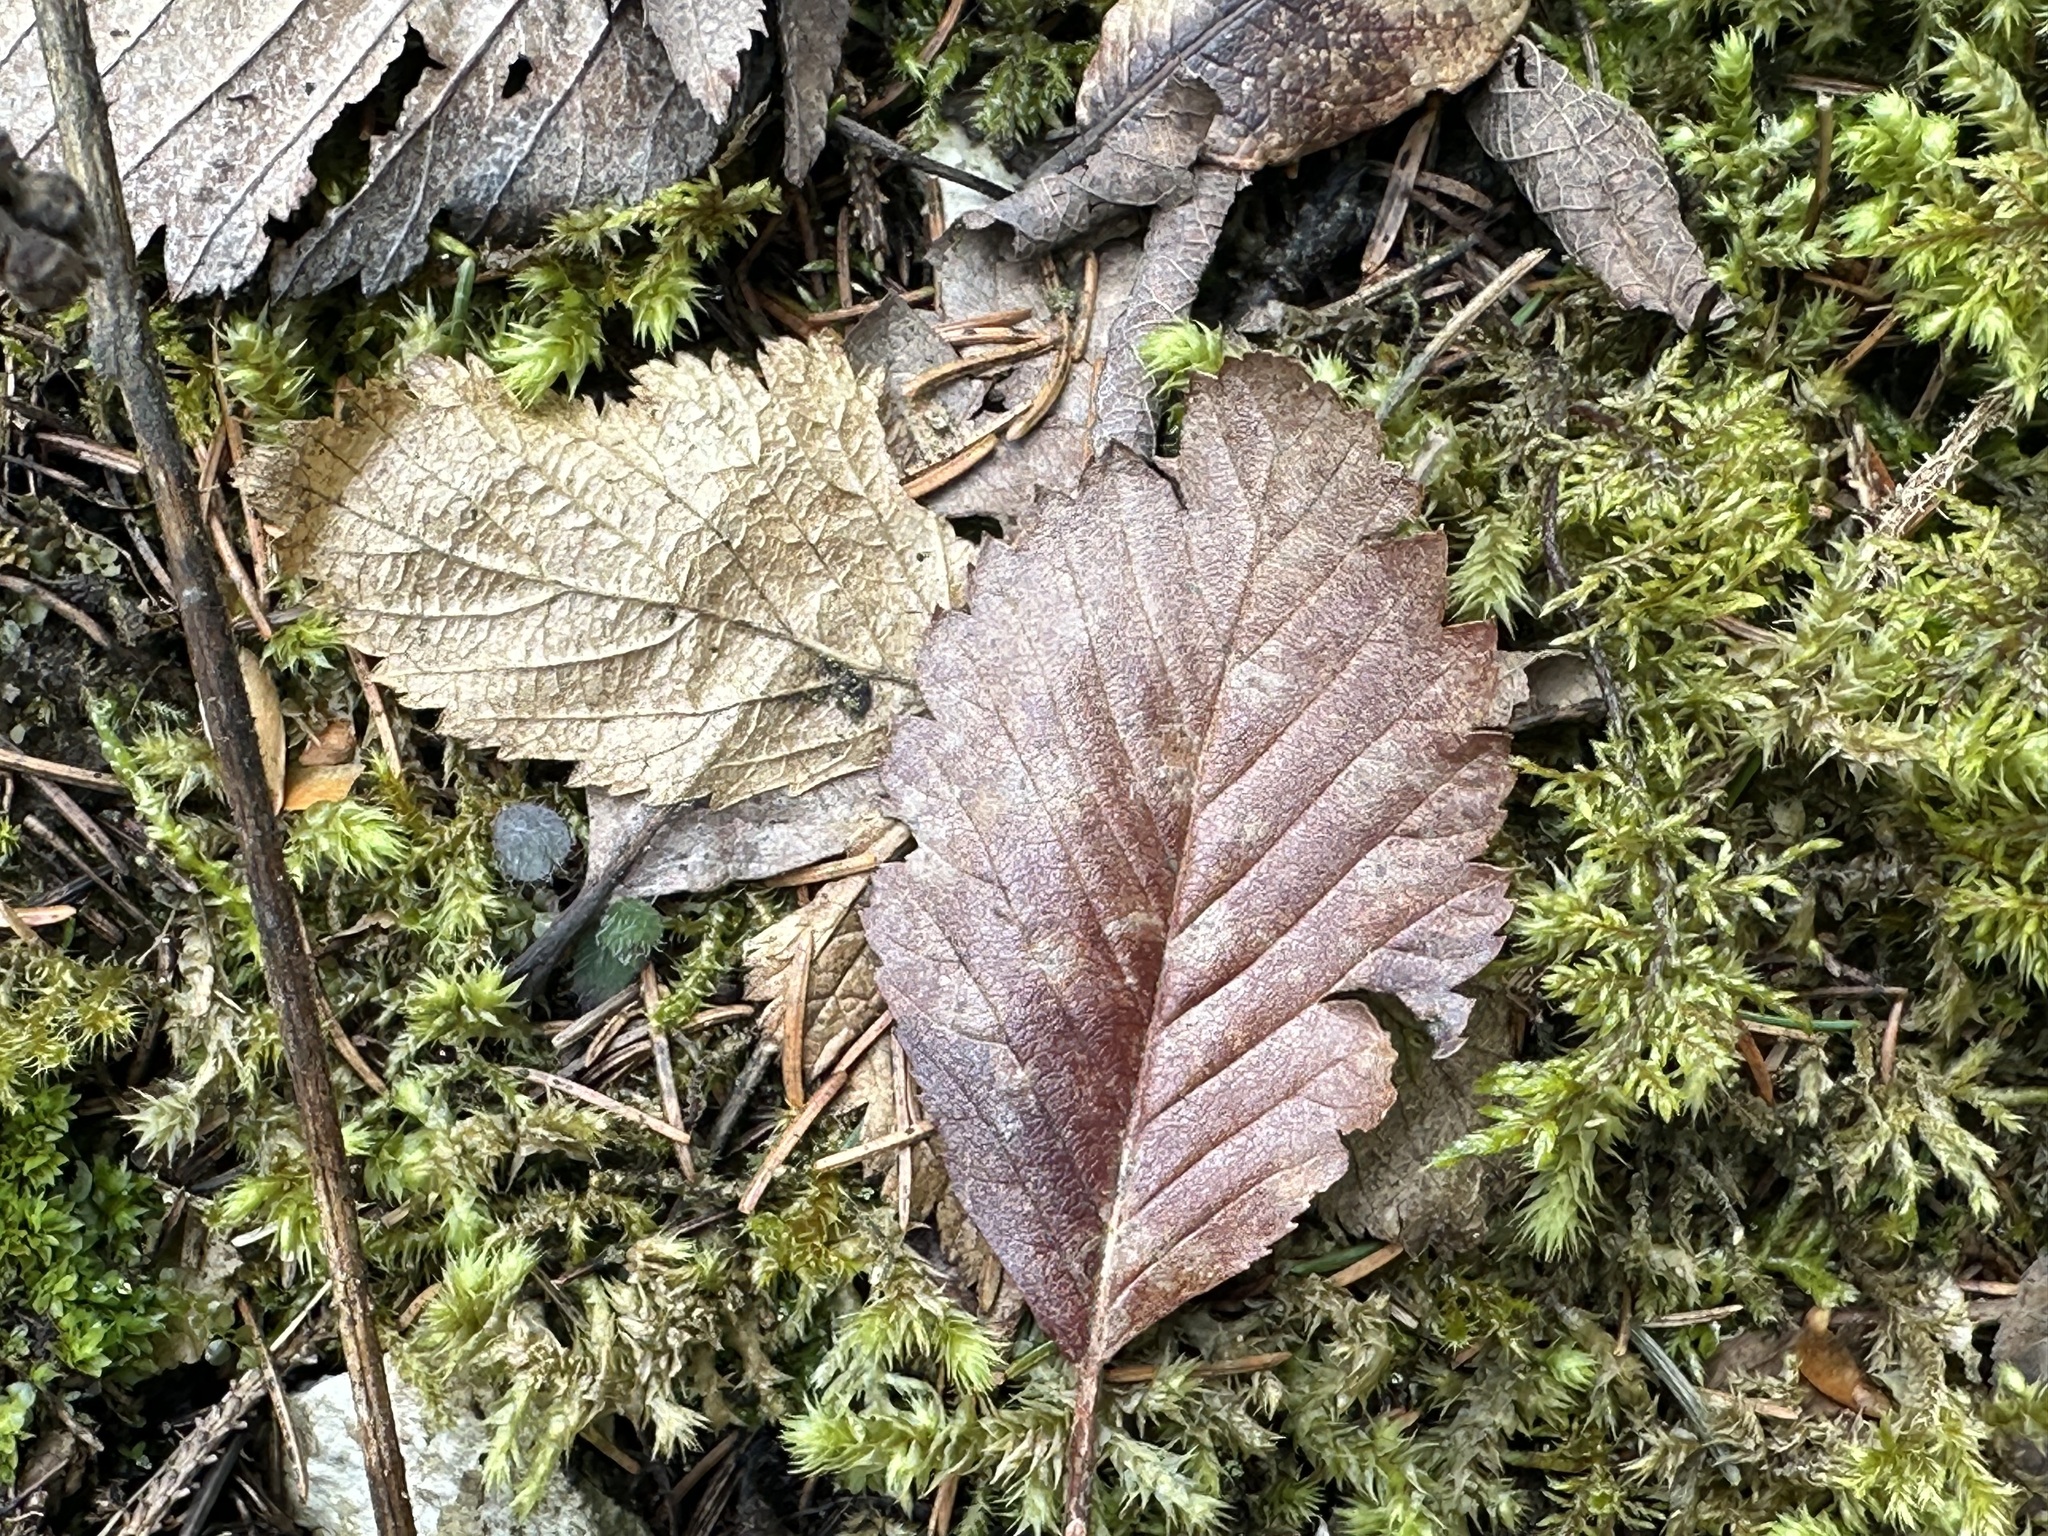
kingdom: Plantae
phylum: Tracheophyta
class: Magnoliopsida
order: Rosales
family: Rosaceae
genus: Hedlundia
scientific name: Hedlundia mougeotii
